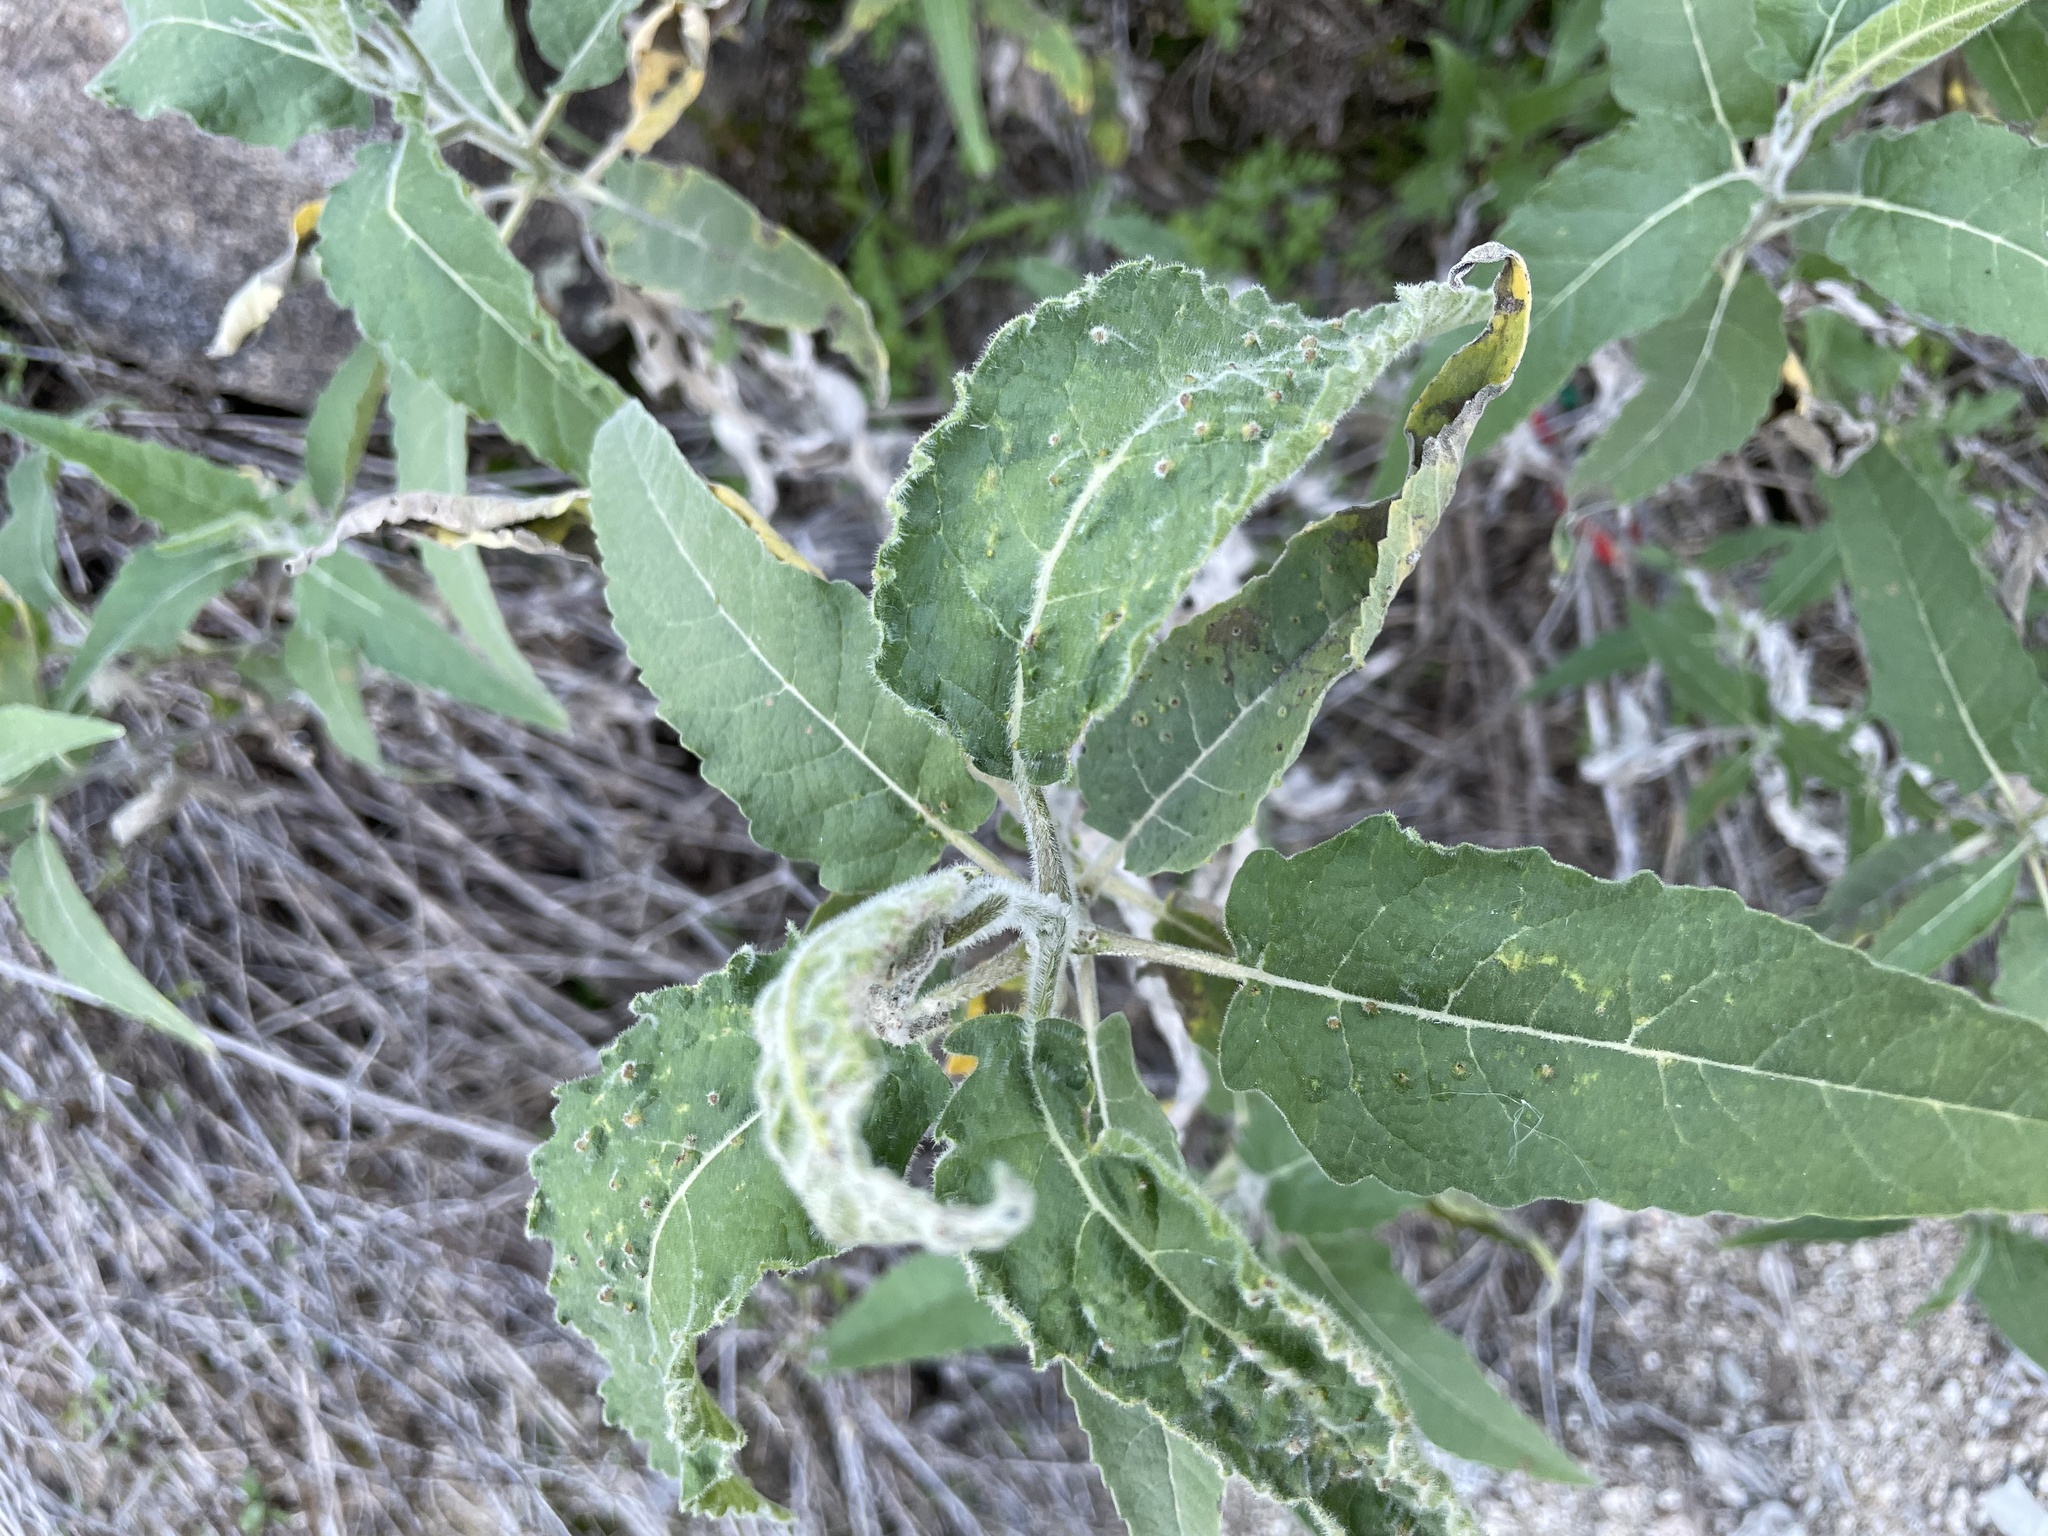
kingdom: Plantae
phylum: Tracheophyta
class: Magnoliopsida
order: Asterales
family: Asteraceae
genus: Ambrosia
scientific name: Ambrosia ambrosioides
